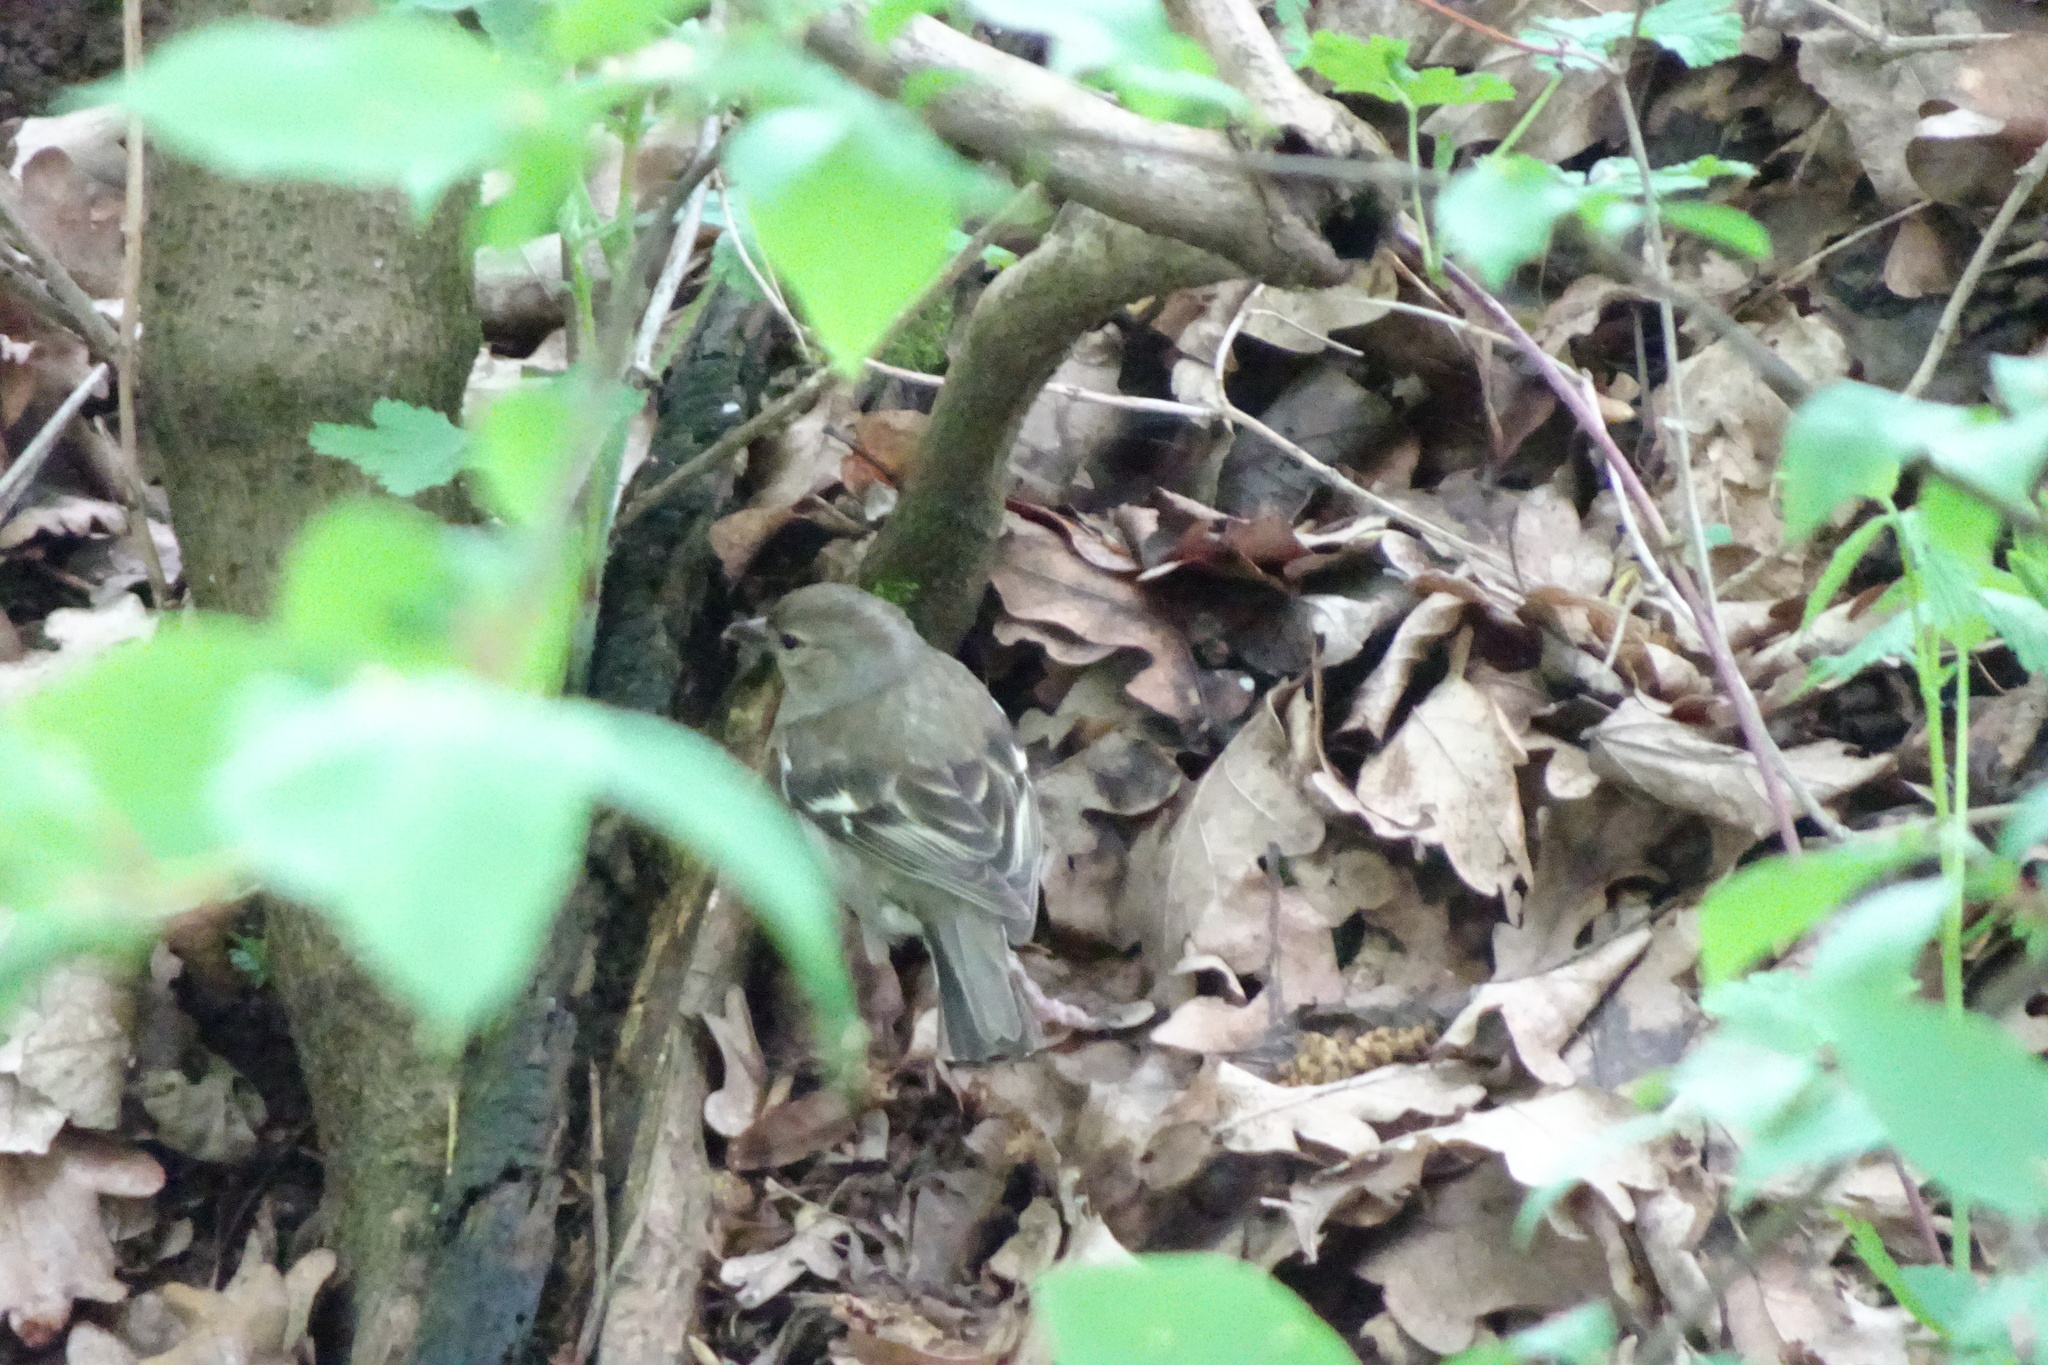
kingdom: Animalia
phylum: Chordata
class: Aves
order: Passeriformes
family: Fringillidae
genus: Fringilla
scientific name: Fringilla coelebs
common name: Common chaffinch
